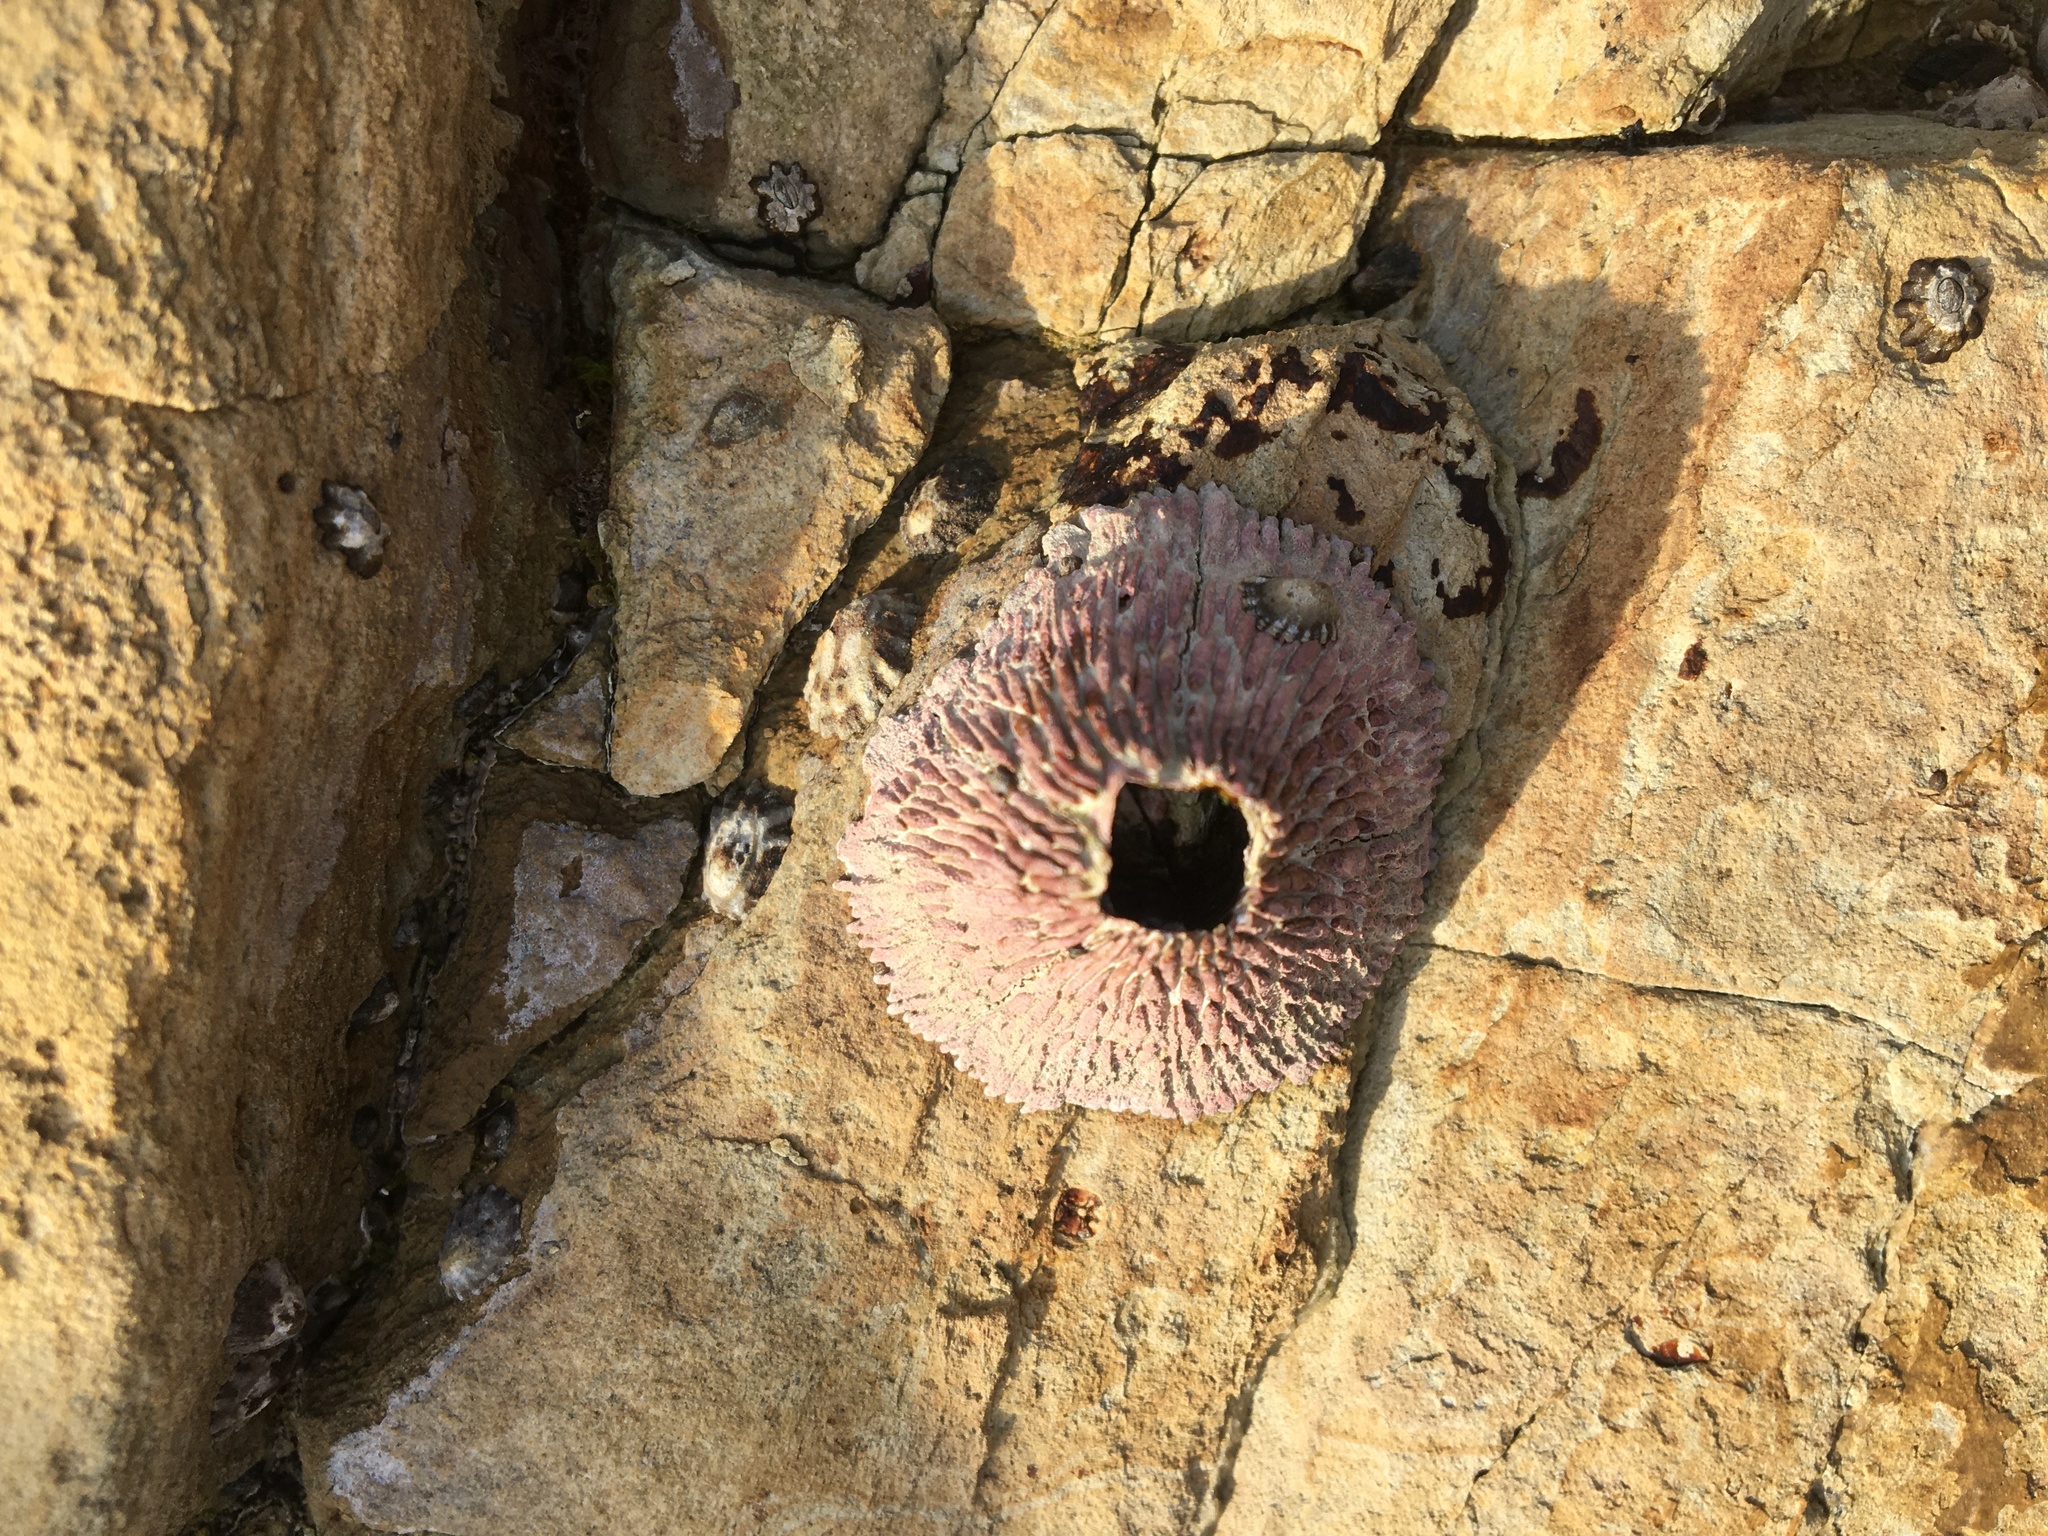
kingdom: Animalia
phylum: Arthropoda
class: Maxillopoda
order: Sessilia
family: Tetraclitidae
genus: Tetraclita
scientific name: Tetraclita rubescens
